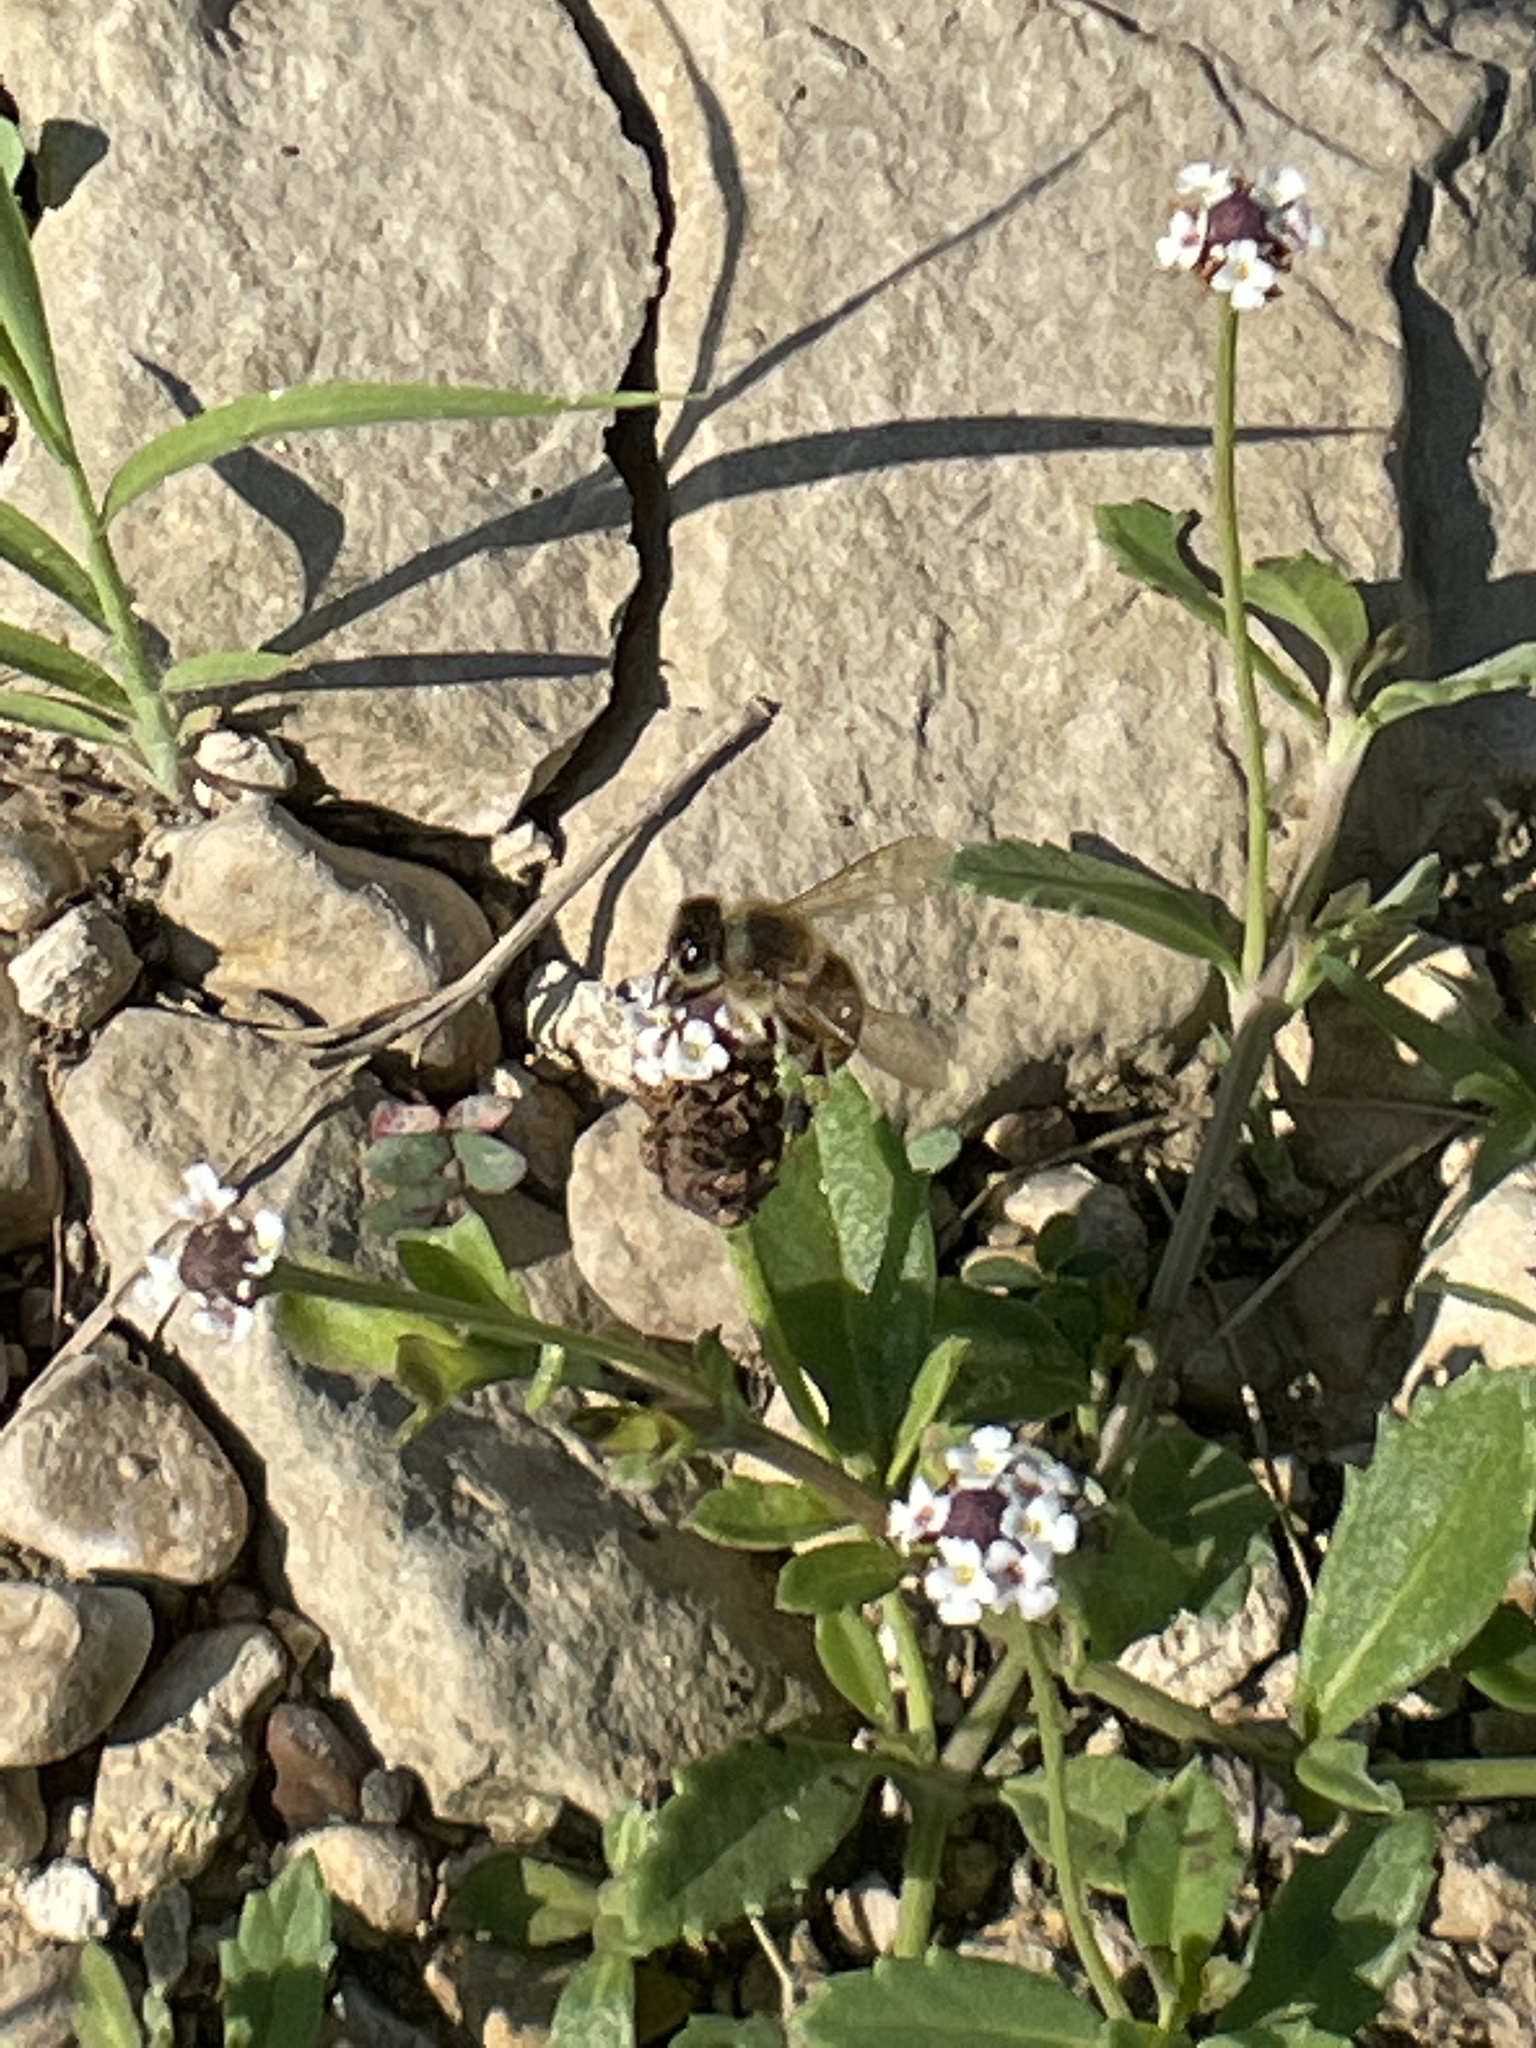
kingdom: Animalia
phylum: Arthropoda
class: Insecta
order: Hymenoptera
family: Apidae
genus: Apis
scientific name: Apis mellifera
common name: Honey bee
